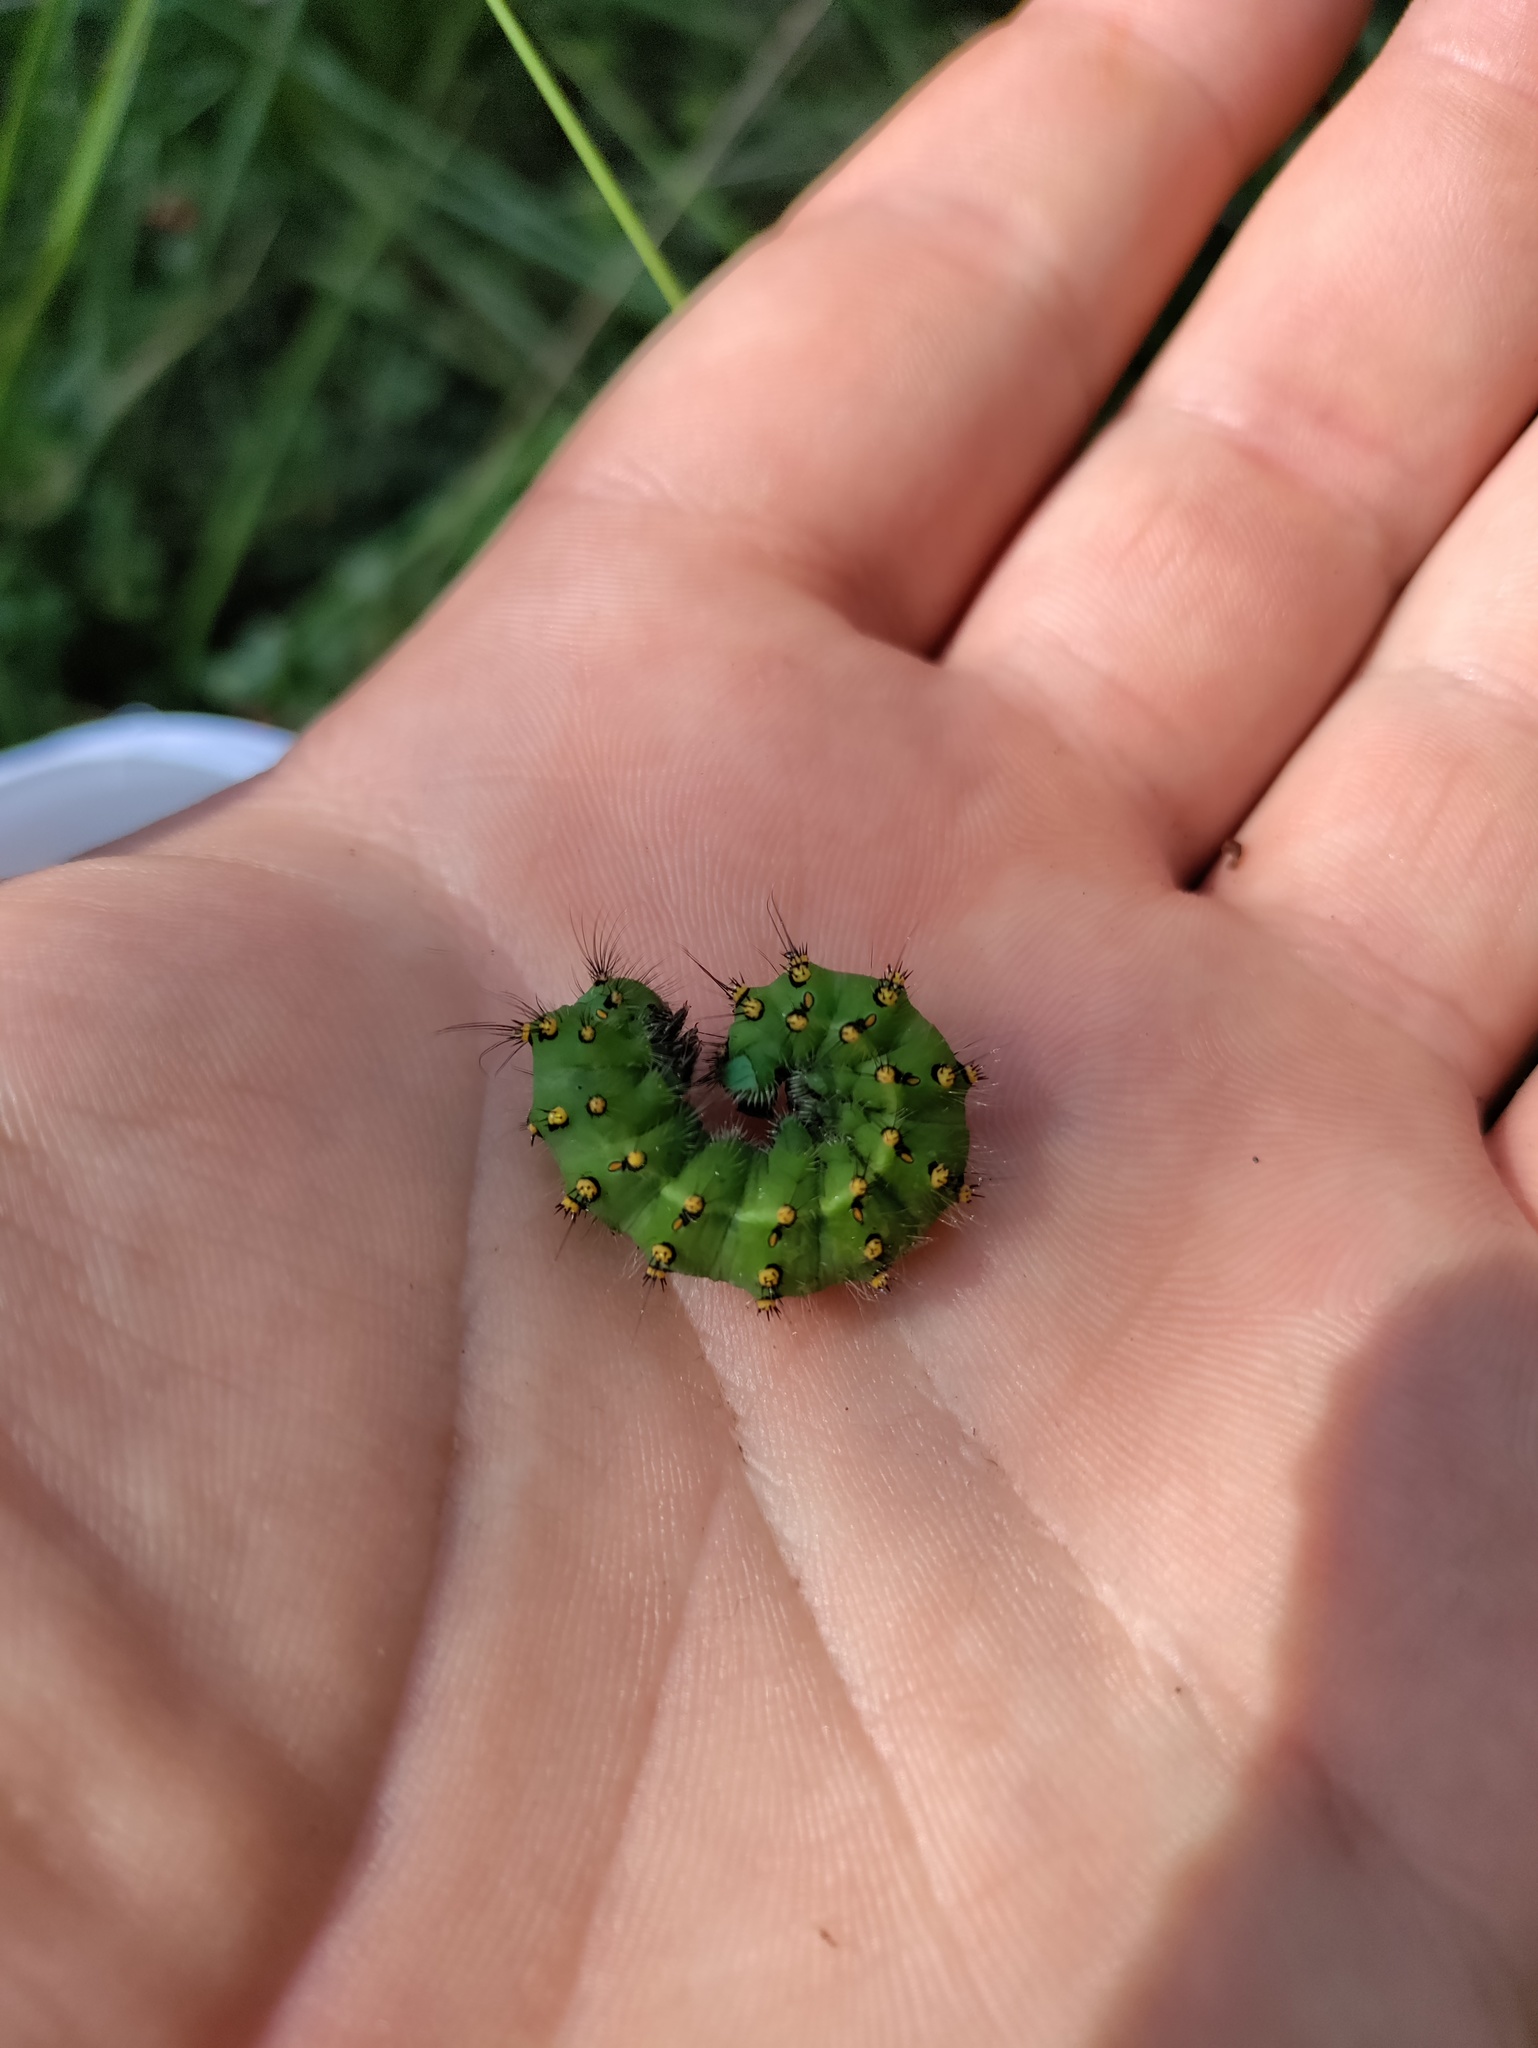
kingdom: Animalia
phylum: Arthropoda
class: Insecta
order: Lepidoptera
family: Saturniidae
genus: Saturnia
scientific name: Saturnia pavonia
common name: Emperor moth
